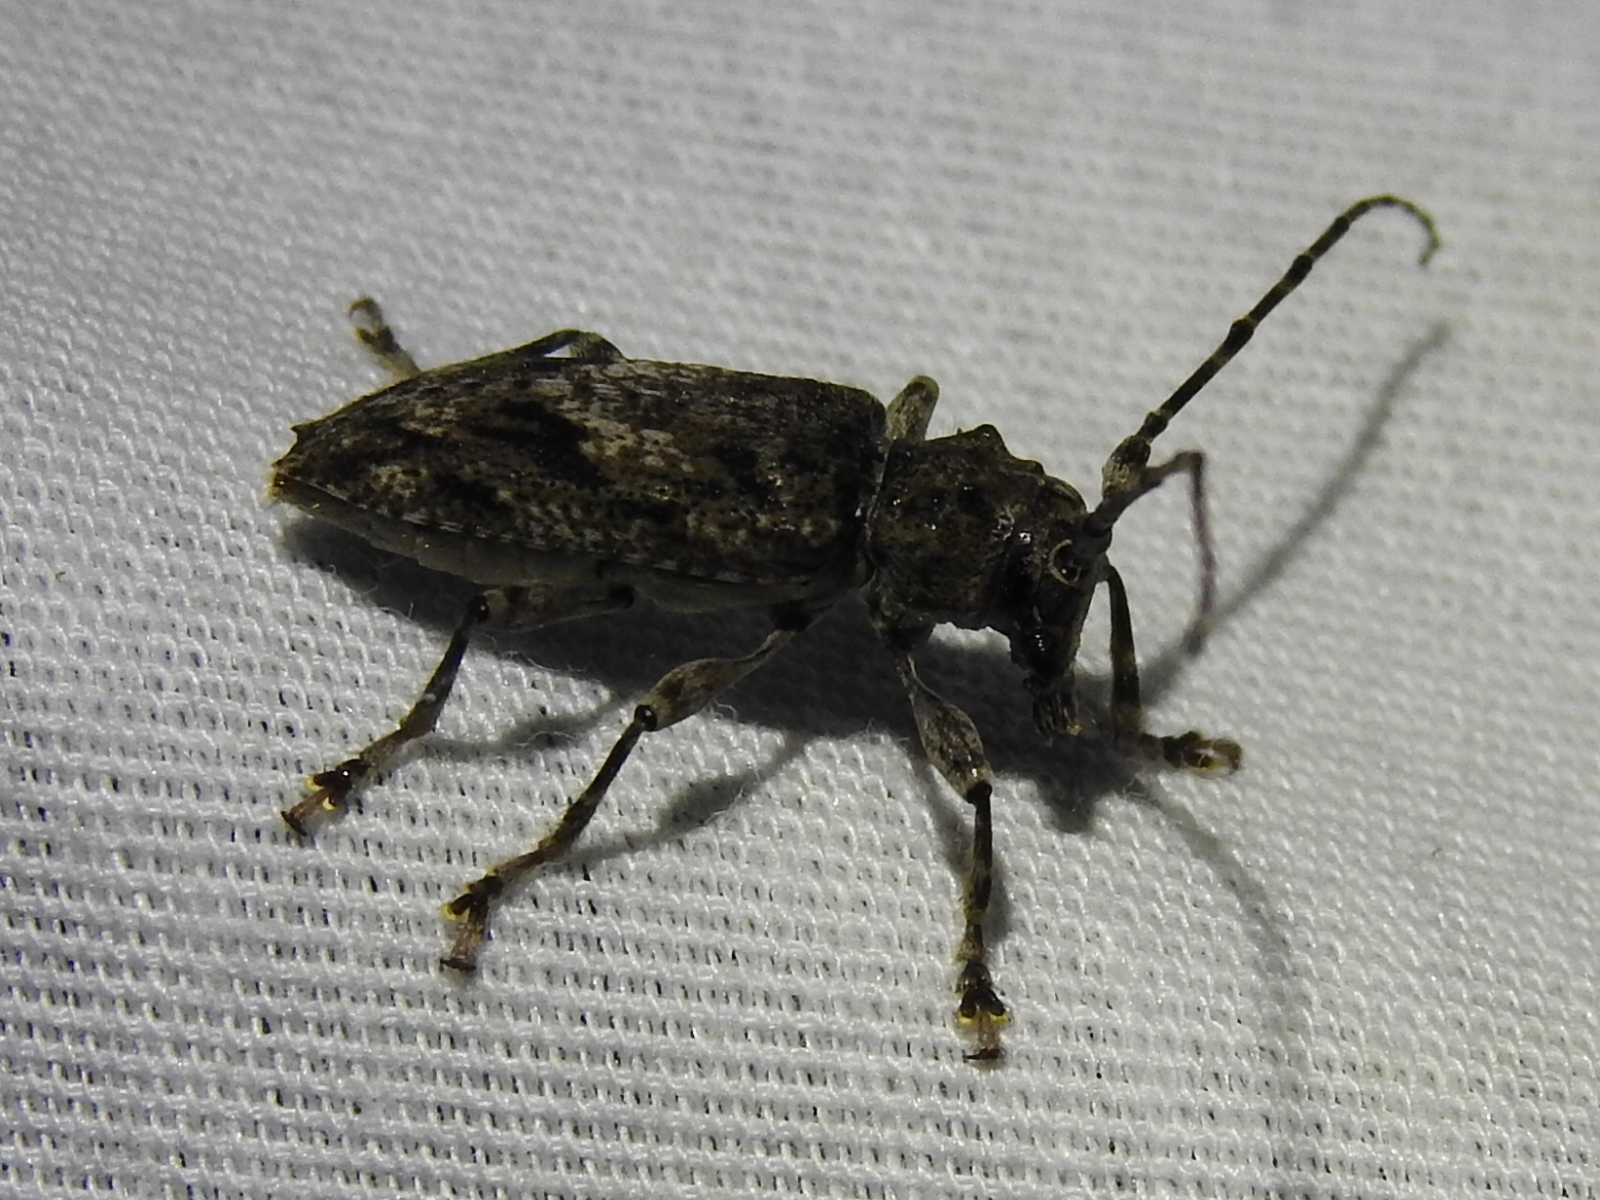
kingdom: Animalia
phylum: Arthropoda
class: Insecta
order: Coleoptera
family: Cerambycidae
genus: Aegomorphus
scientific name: Aegomorphus modestus
